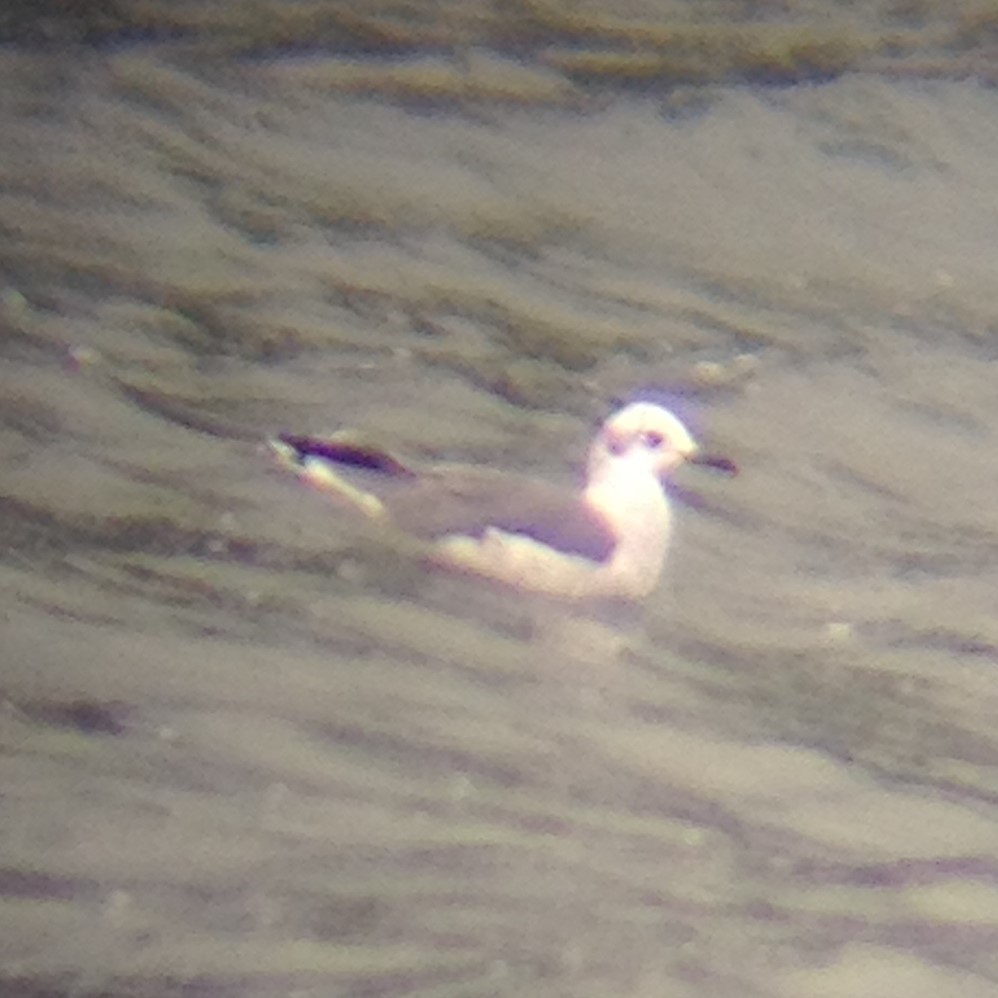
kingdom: Animalia
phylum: Chordata
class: Aves
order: Charadriiformes
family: Laridae
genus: Leucophaeus
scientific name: Leucophaeus atricilla
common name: Laughing gull
